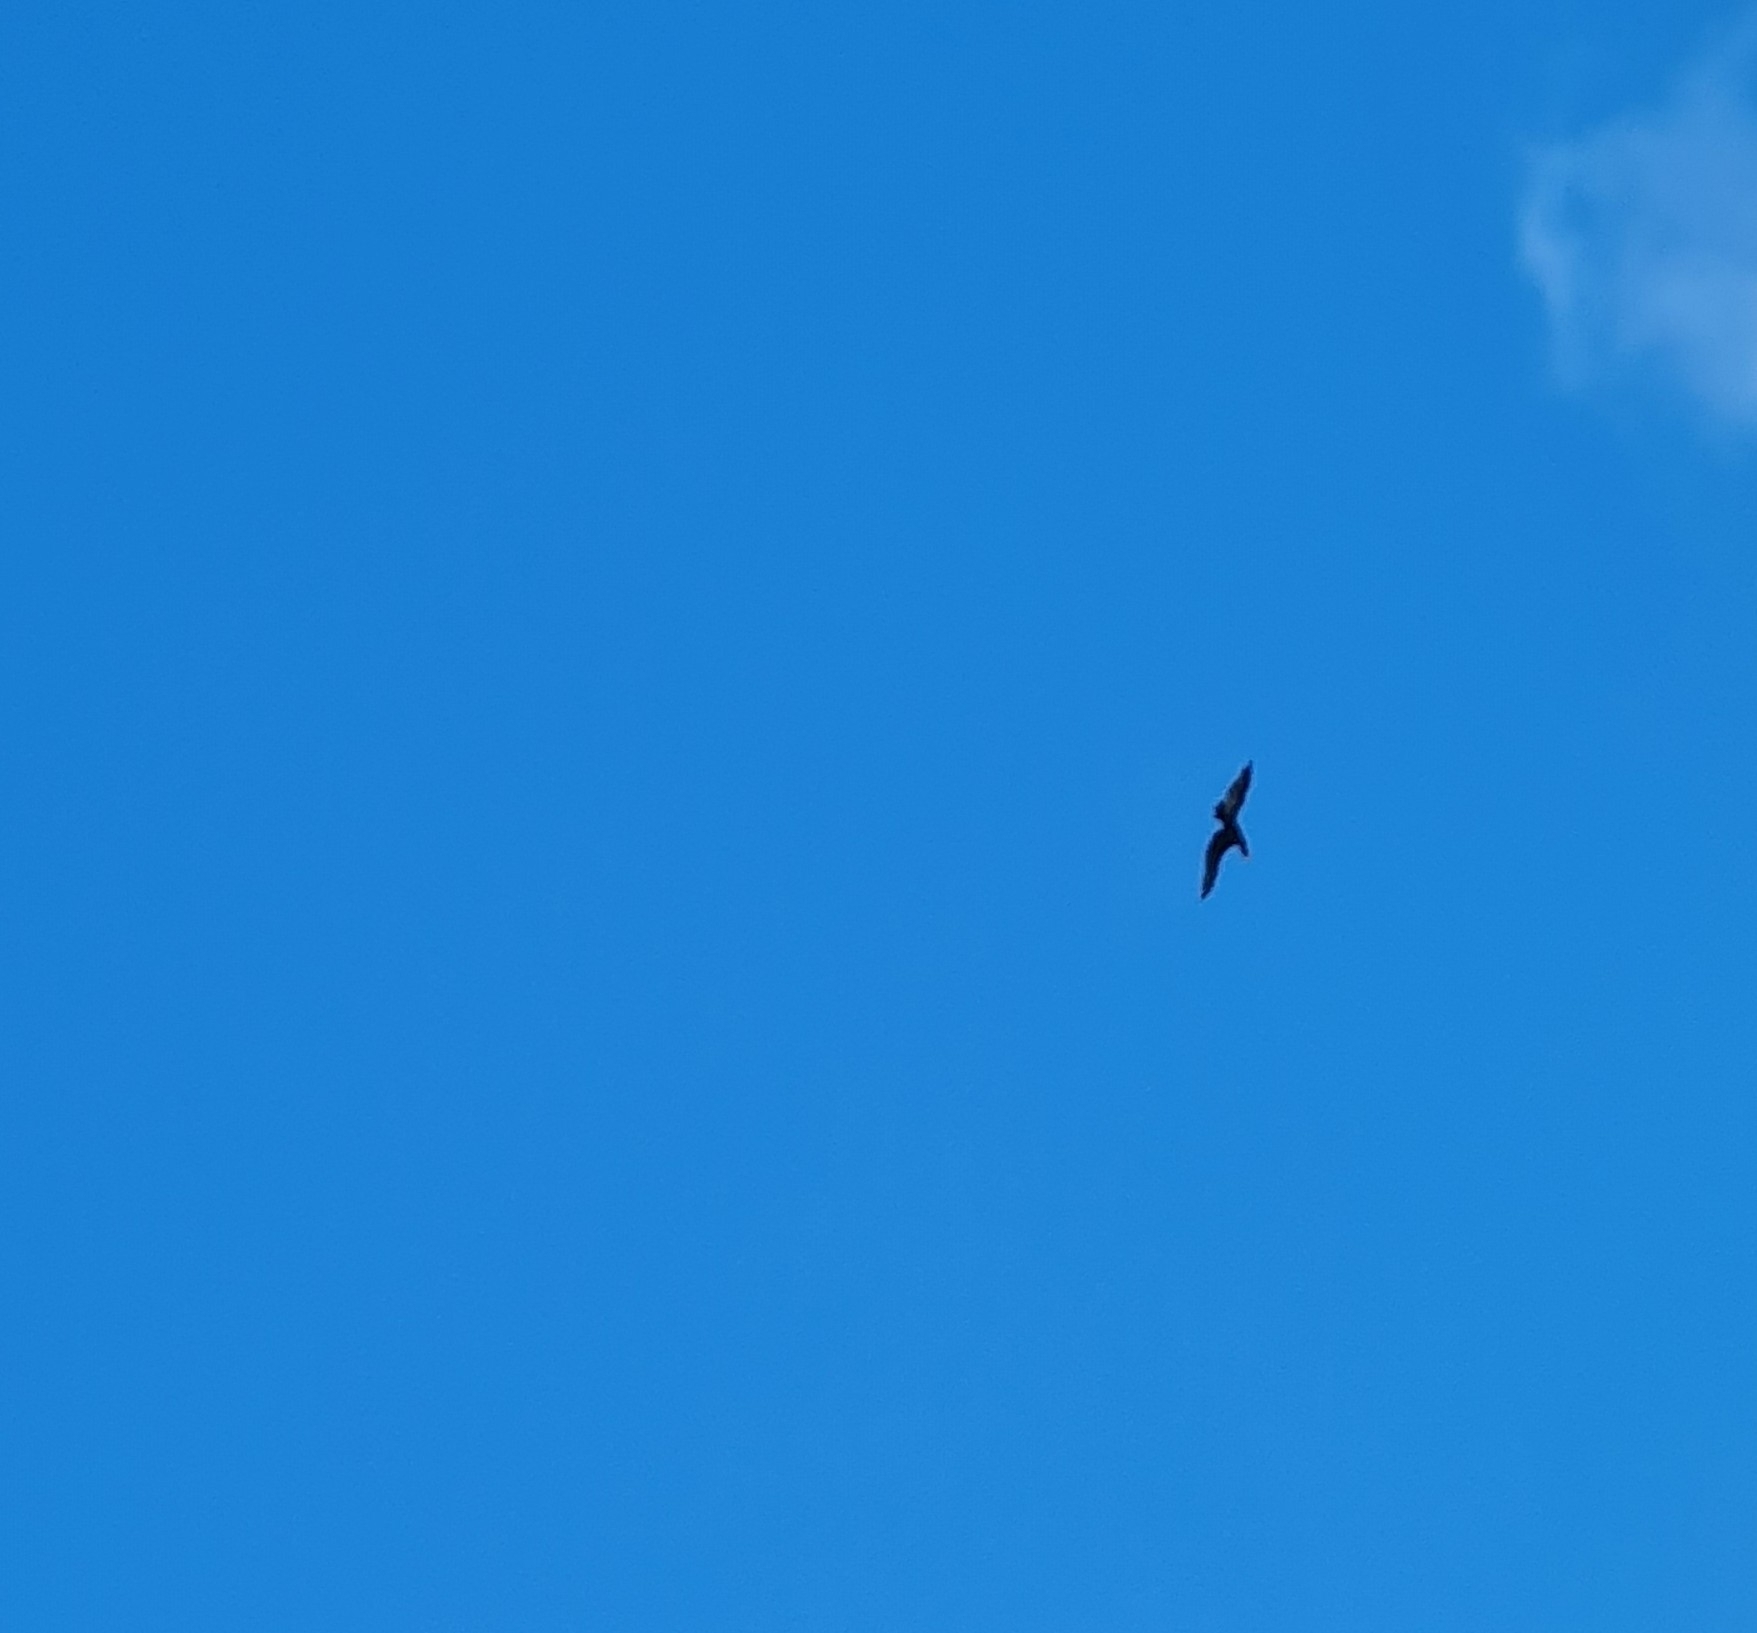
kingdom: Animalia
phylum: Chordata
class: Aves
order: Suliformes
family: Phalacrocoracidae
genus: Phalacrocorax
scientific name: Phalacrocorax carbo
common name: Great cormorant
